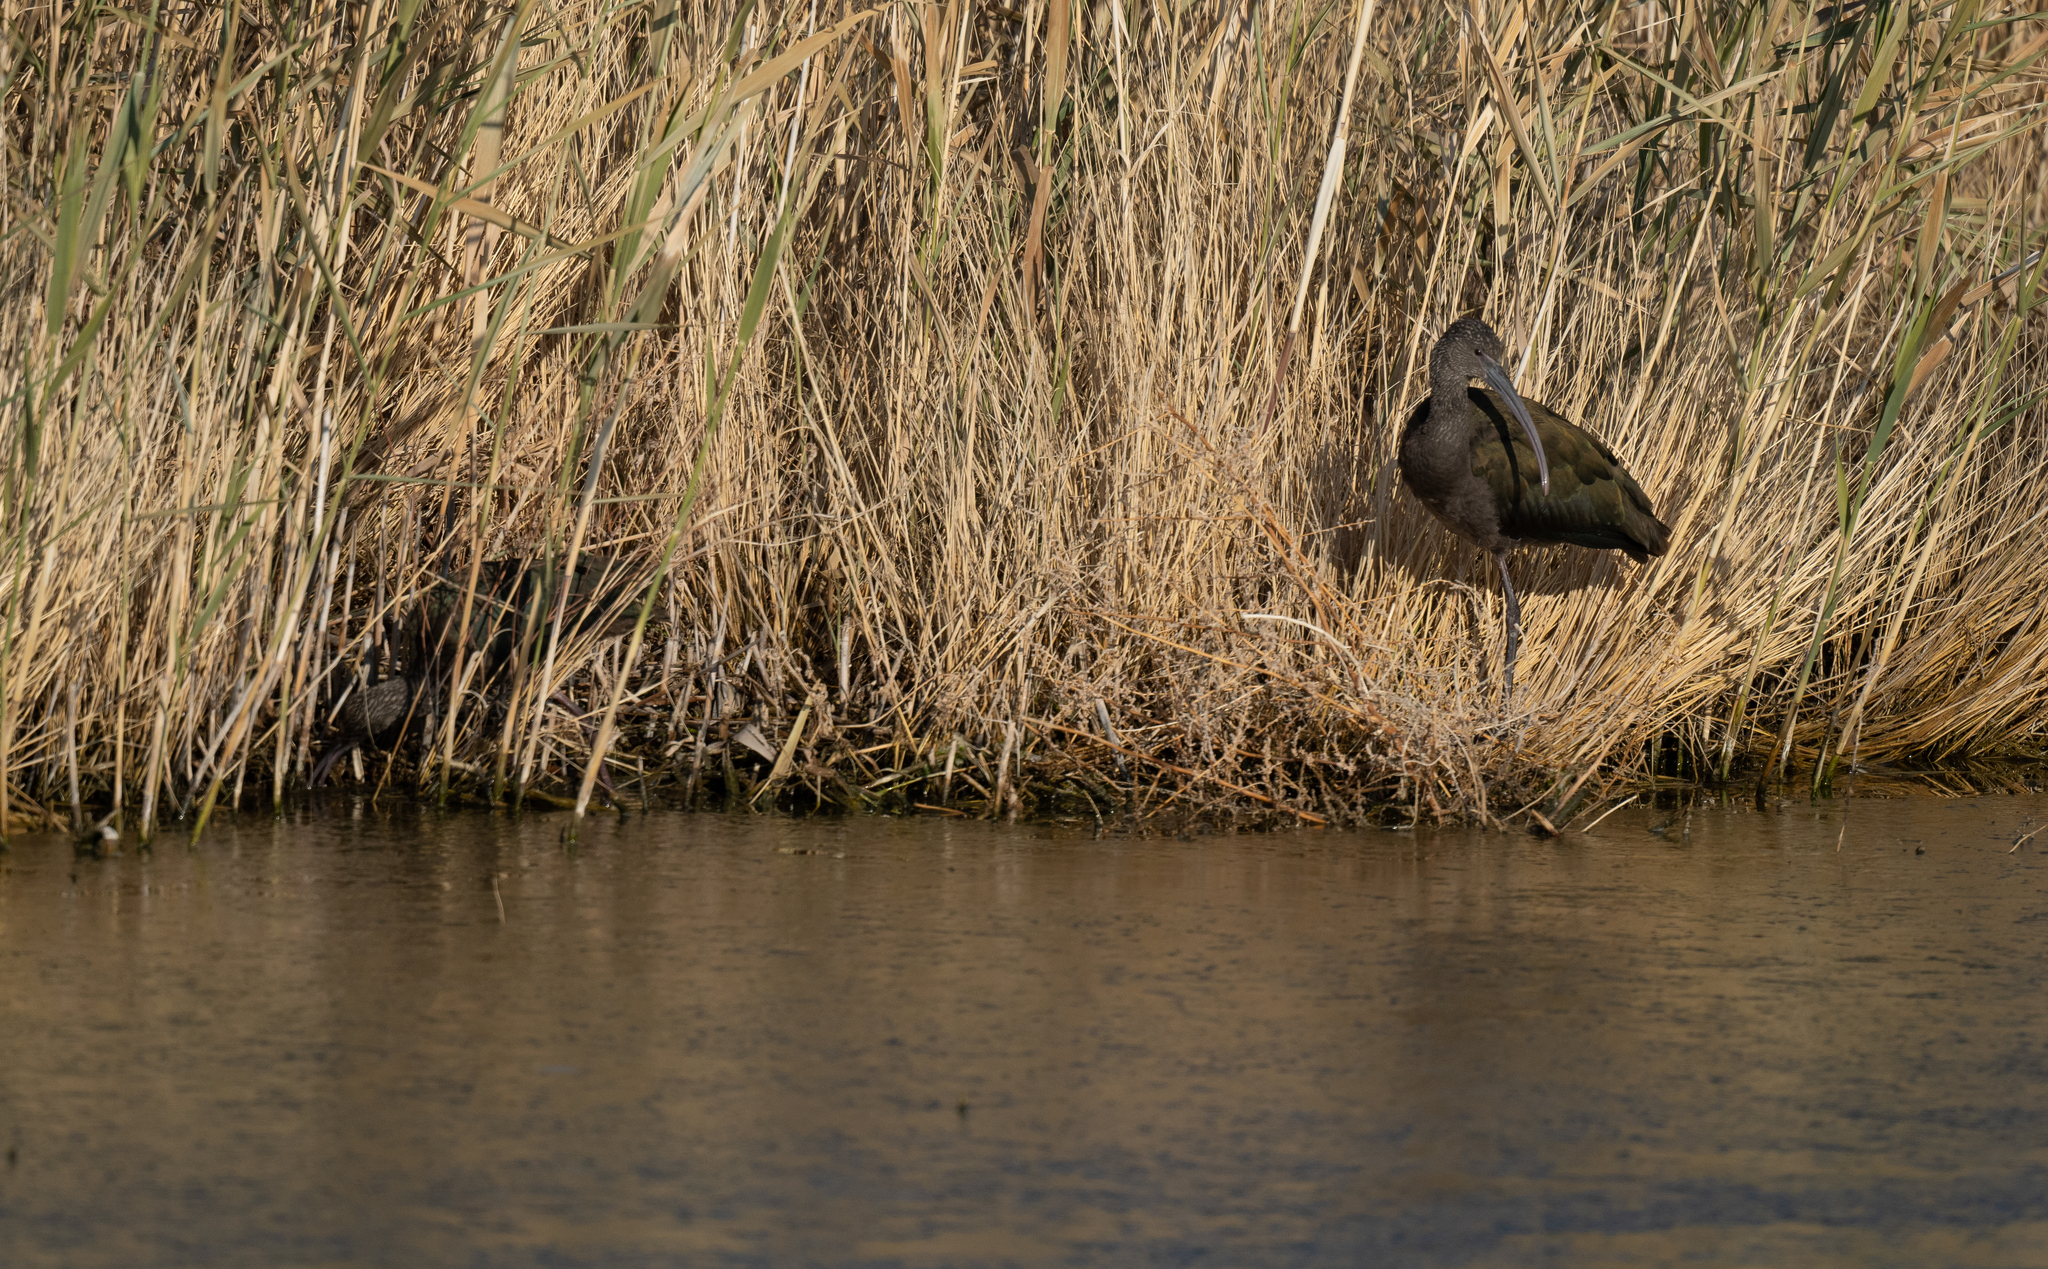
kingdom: Animalia
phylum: Chordata
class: Aves
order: Pelecaniformes
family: Threskiornithidae
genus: Plegadis
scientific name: Plegadis chihi
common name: White-faced ibis
